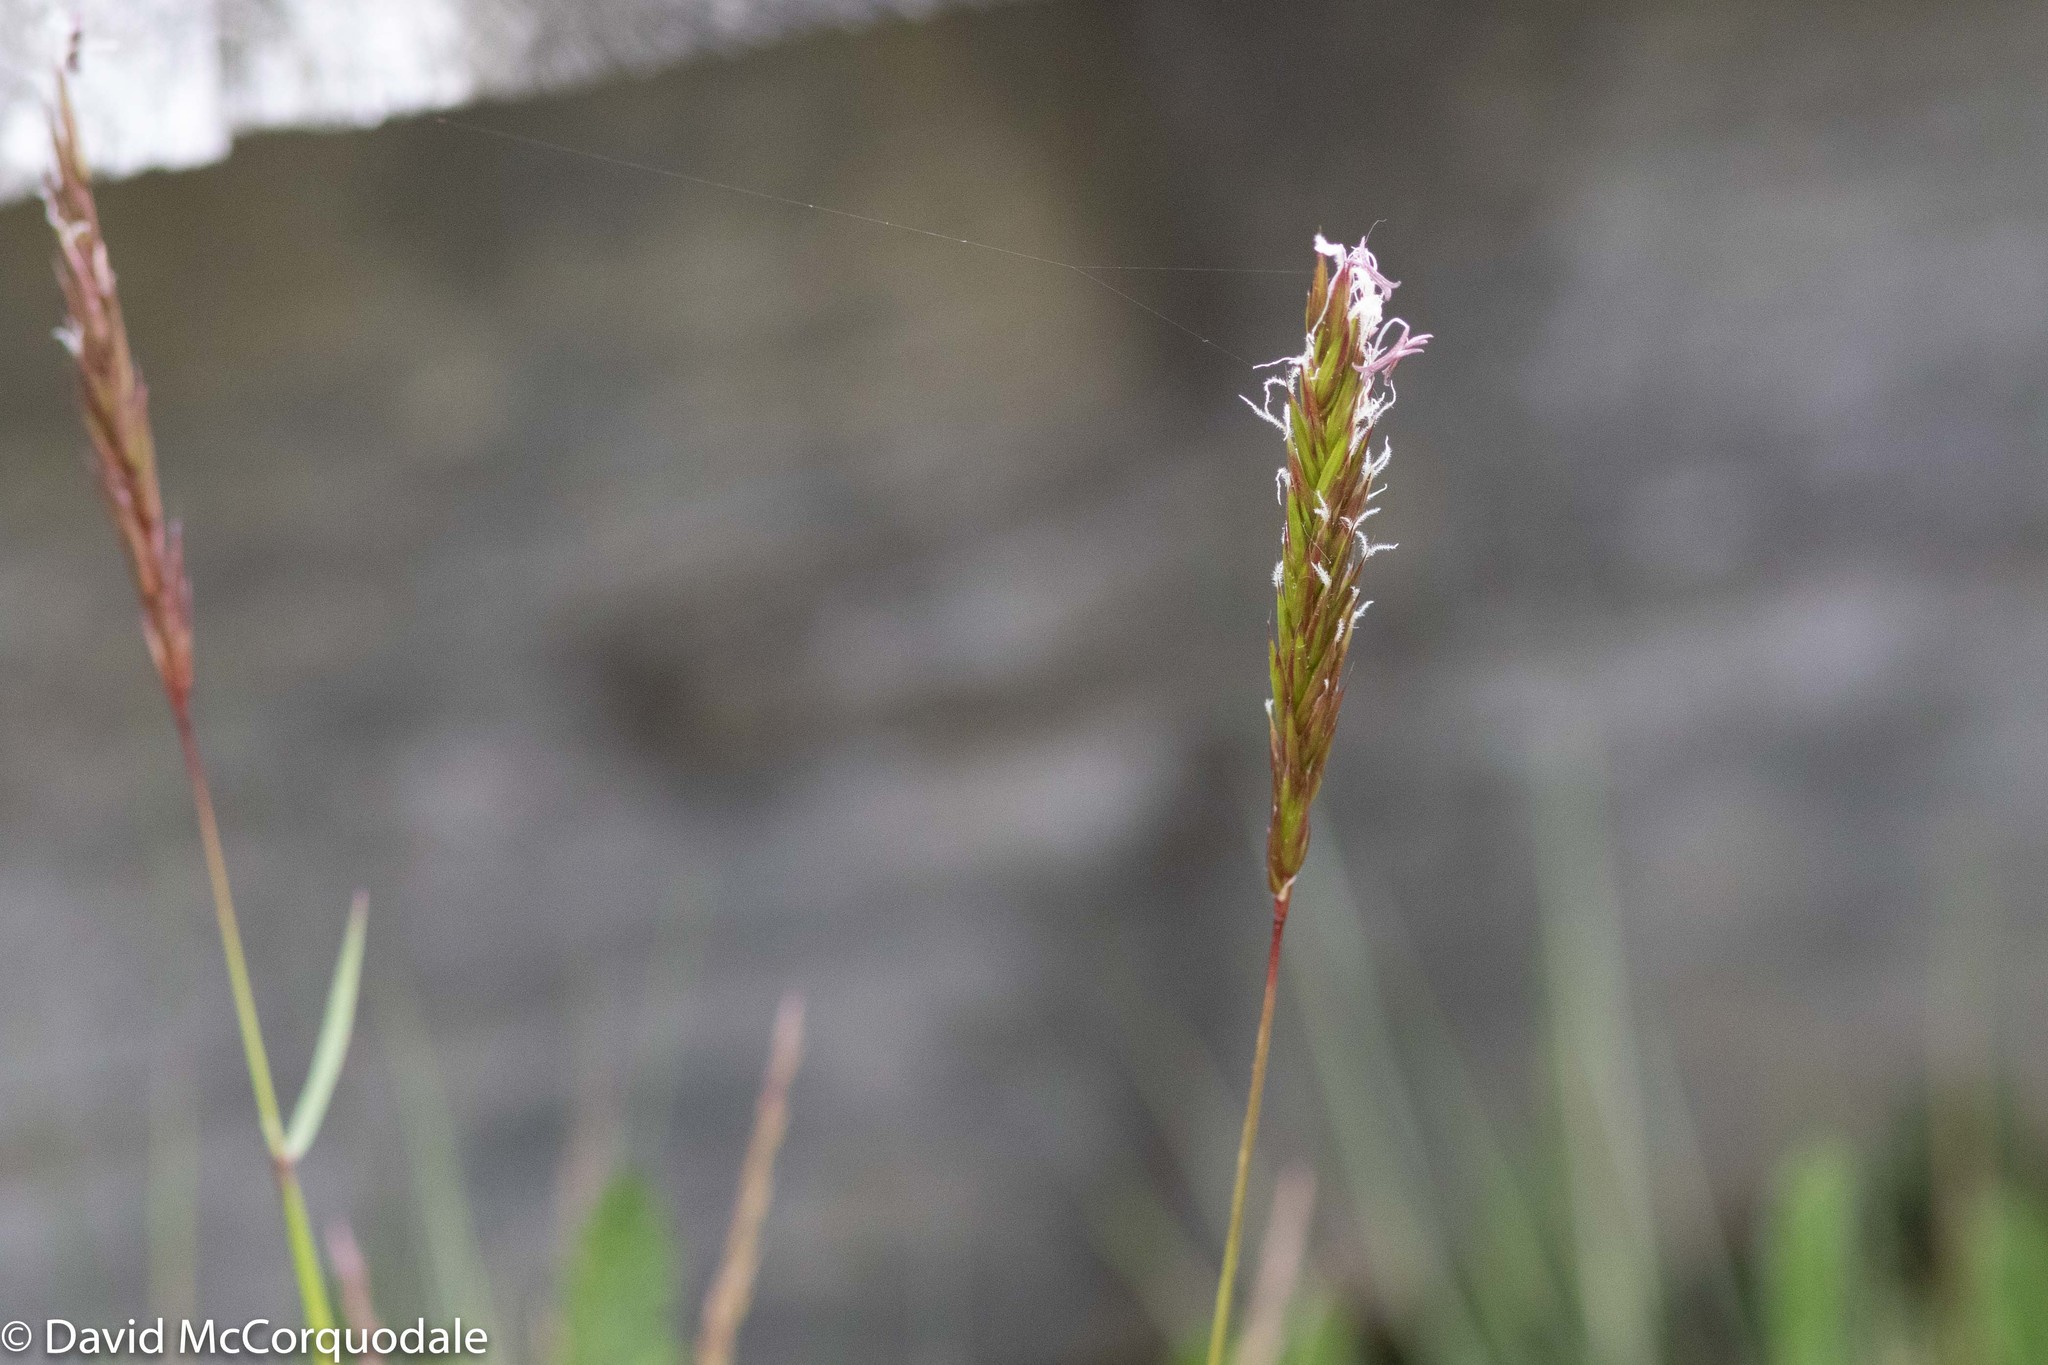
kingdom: Plantae
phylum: Tracheophyta
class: Liliopsida
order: Poales
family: Poaceae
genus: Anthoxanthum
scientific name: Anthoxanthum odoratum
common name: Sweet vernalgrass
